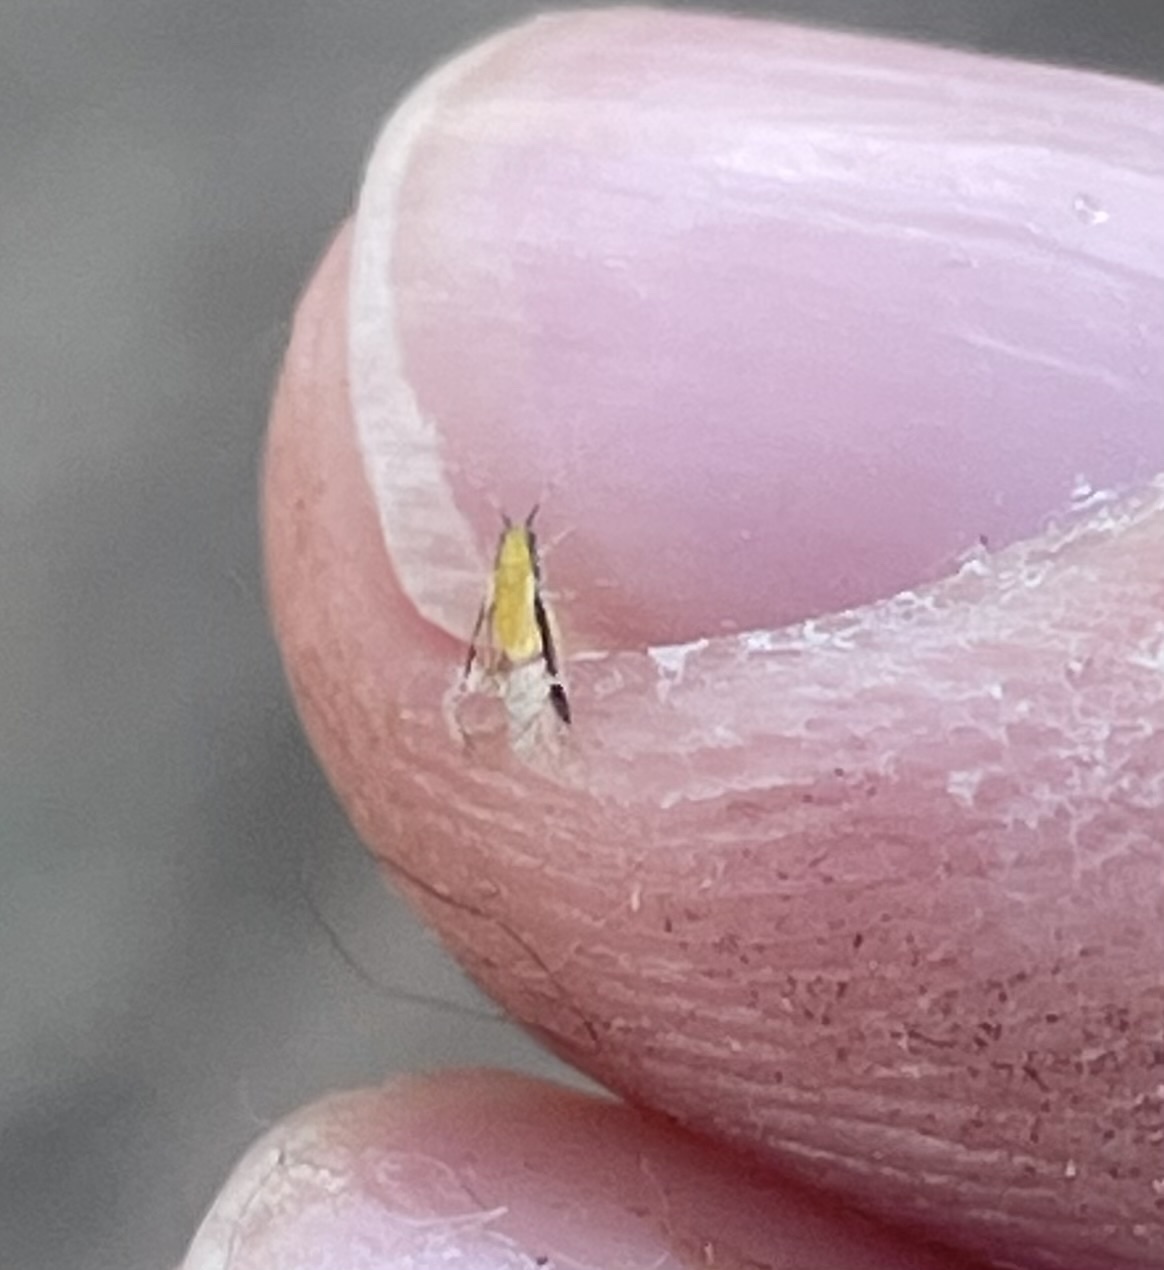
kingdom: Animalia
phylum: Arthropoda
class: Insecta
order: Hemiptera
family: Aphididae
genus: Monellia
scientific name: Monellia caryella
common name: Blackmargined aphid
